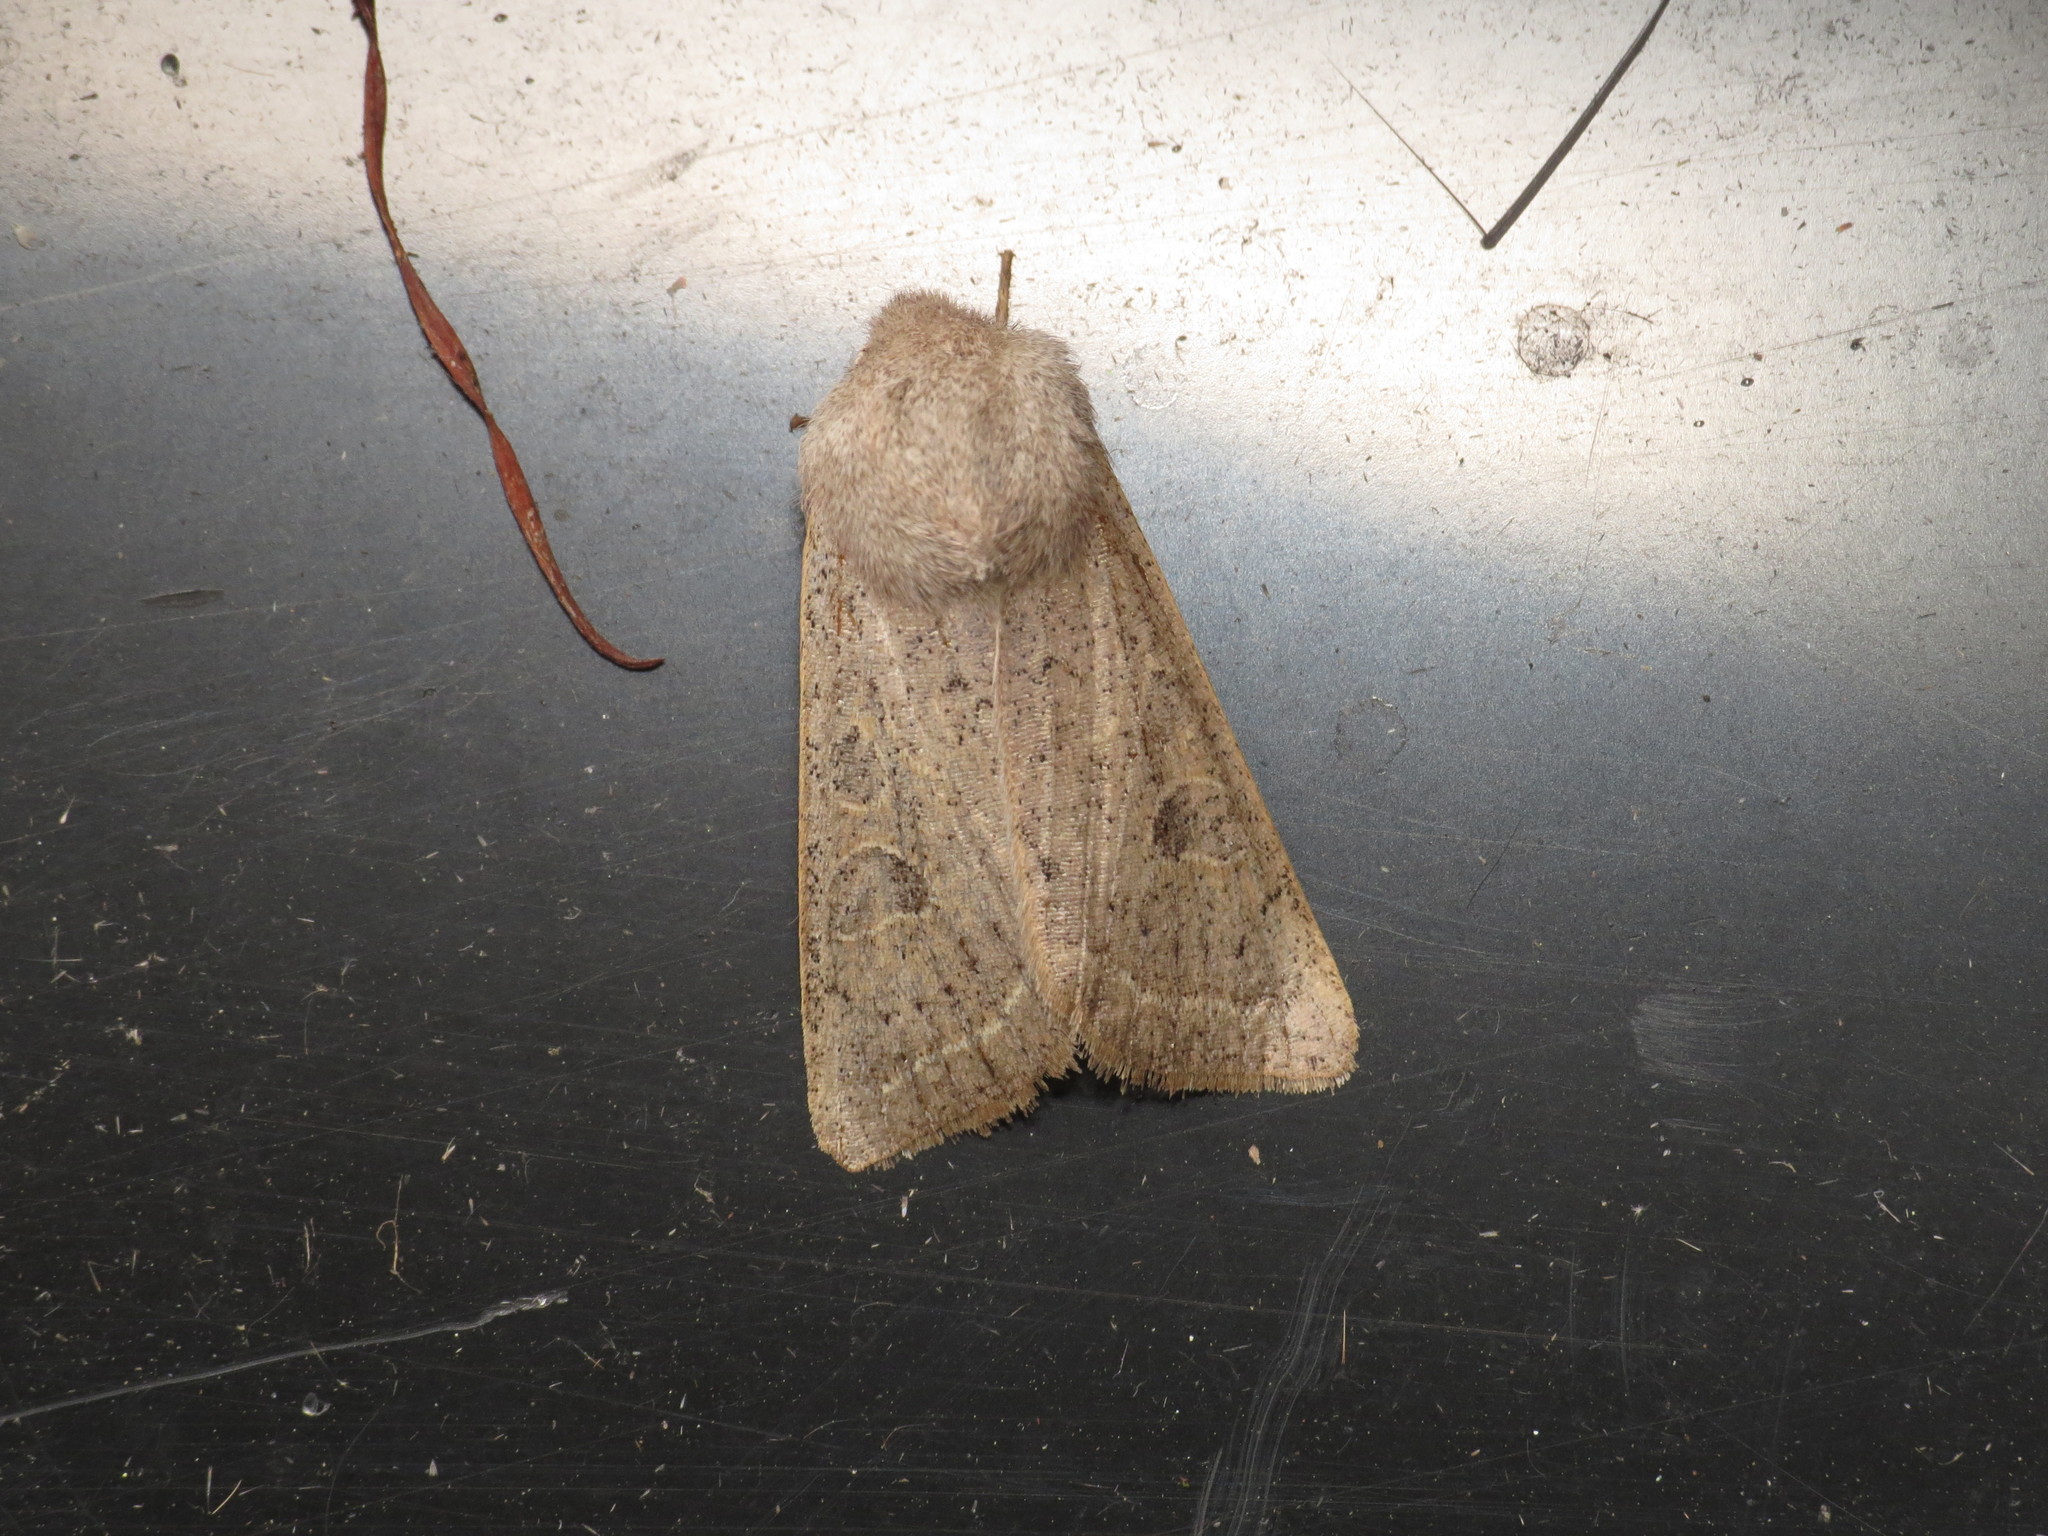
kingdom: Animalia
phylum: Arthropoda
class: Insecta
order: Lepidoptera
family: Noctuidae
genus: Orthosia
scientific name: Orthosia gracilis
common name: Powdered quaker
